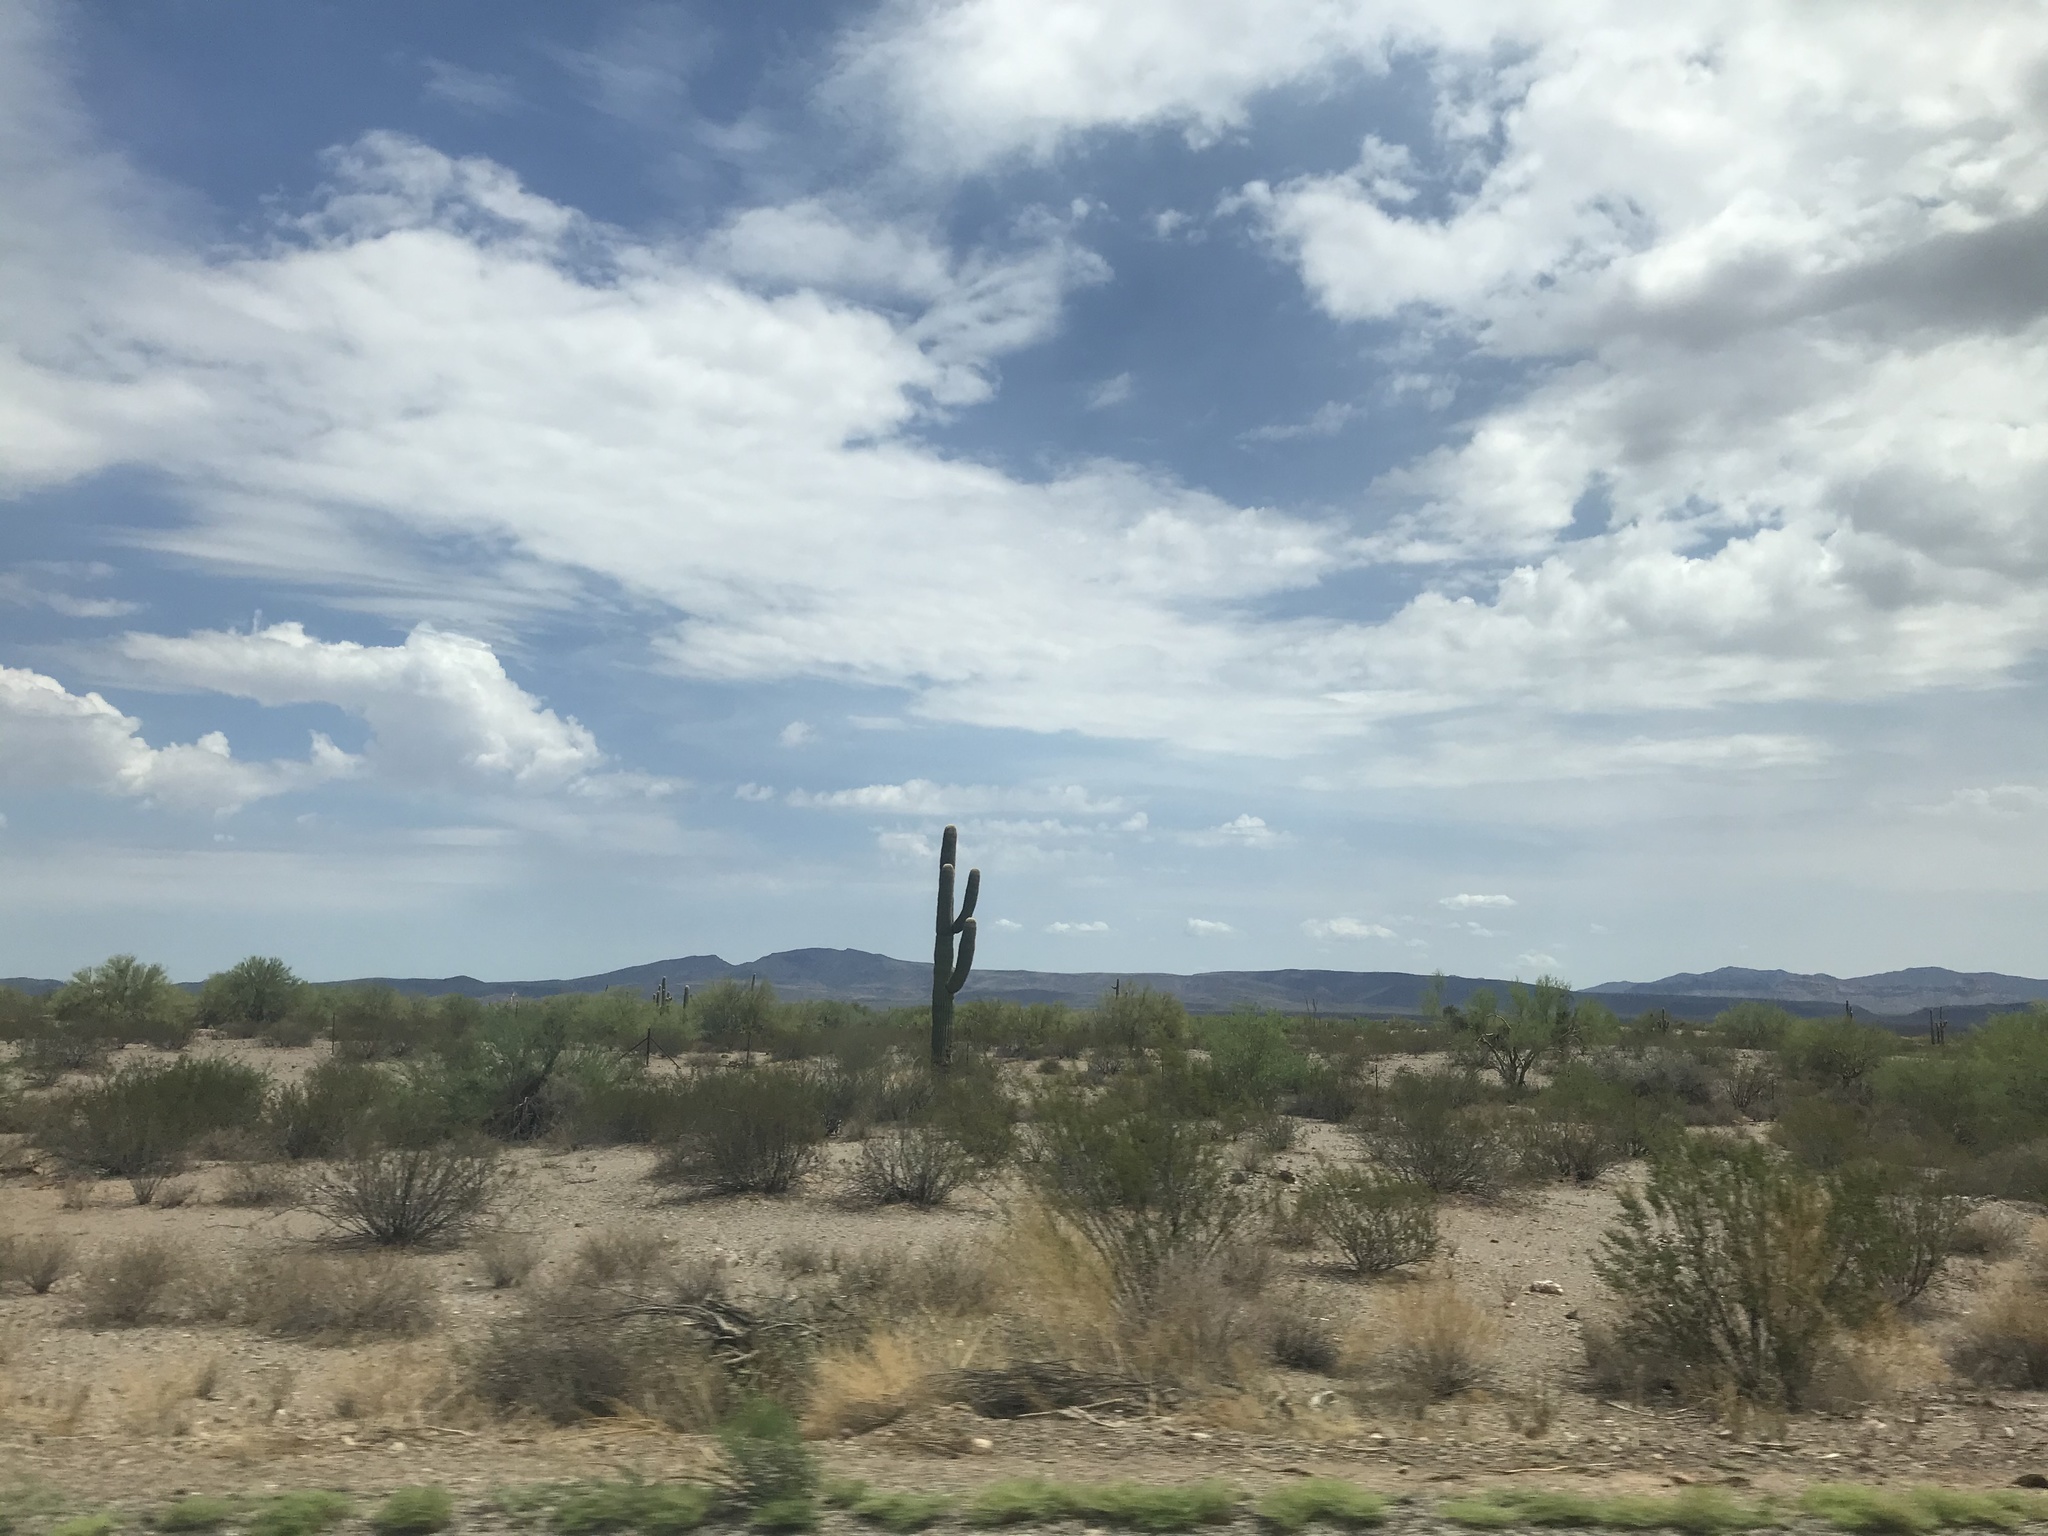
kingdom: Plantae
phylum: Tracheophyta
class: Magnoliopsida
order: Caryophyllales
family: Cactaceae
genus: Carnegiea
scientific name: Carnegiea gigantea
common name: Saguaro
